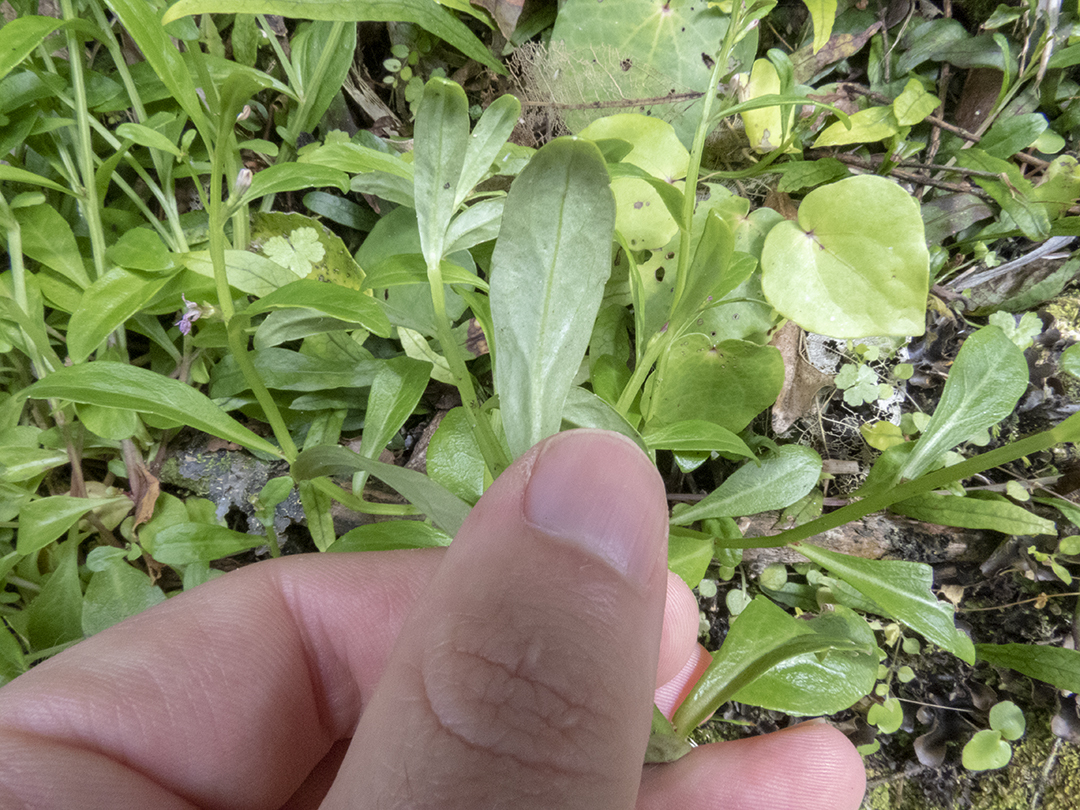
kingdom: Plantae
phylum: Tracheophyta
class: Magnoliopsida
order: Asterales
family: Campanulaceae
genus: Lobelia
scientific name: Lobelia anceps
